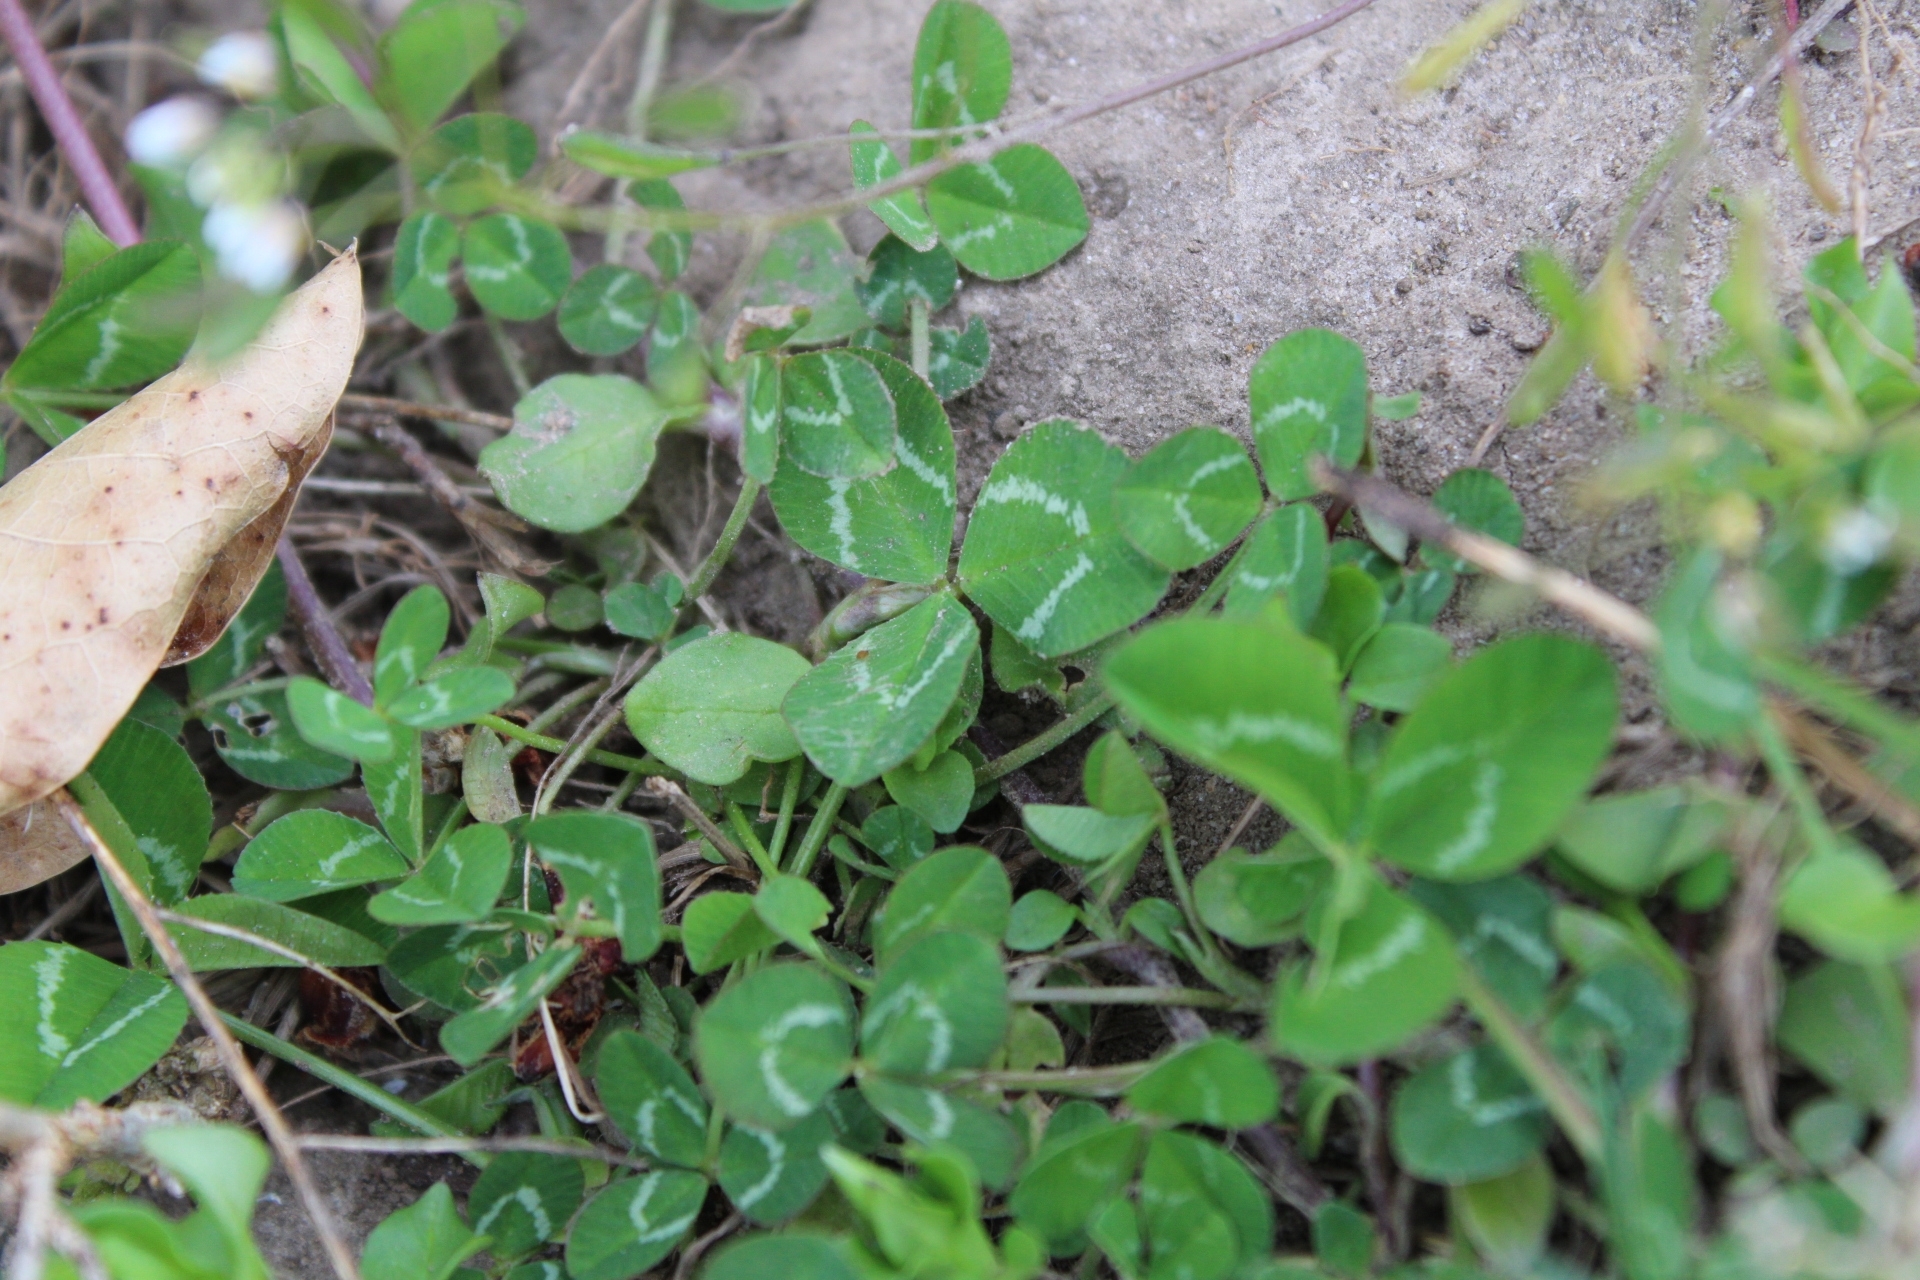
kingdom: Plantae
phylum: Tracheophyta
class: Magnoliopsida
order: Fabales
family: Fabaceae
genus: Trifolium
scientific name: Trifolium repens
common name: White clover
